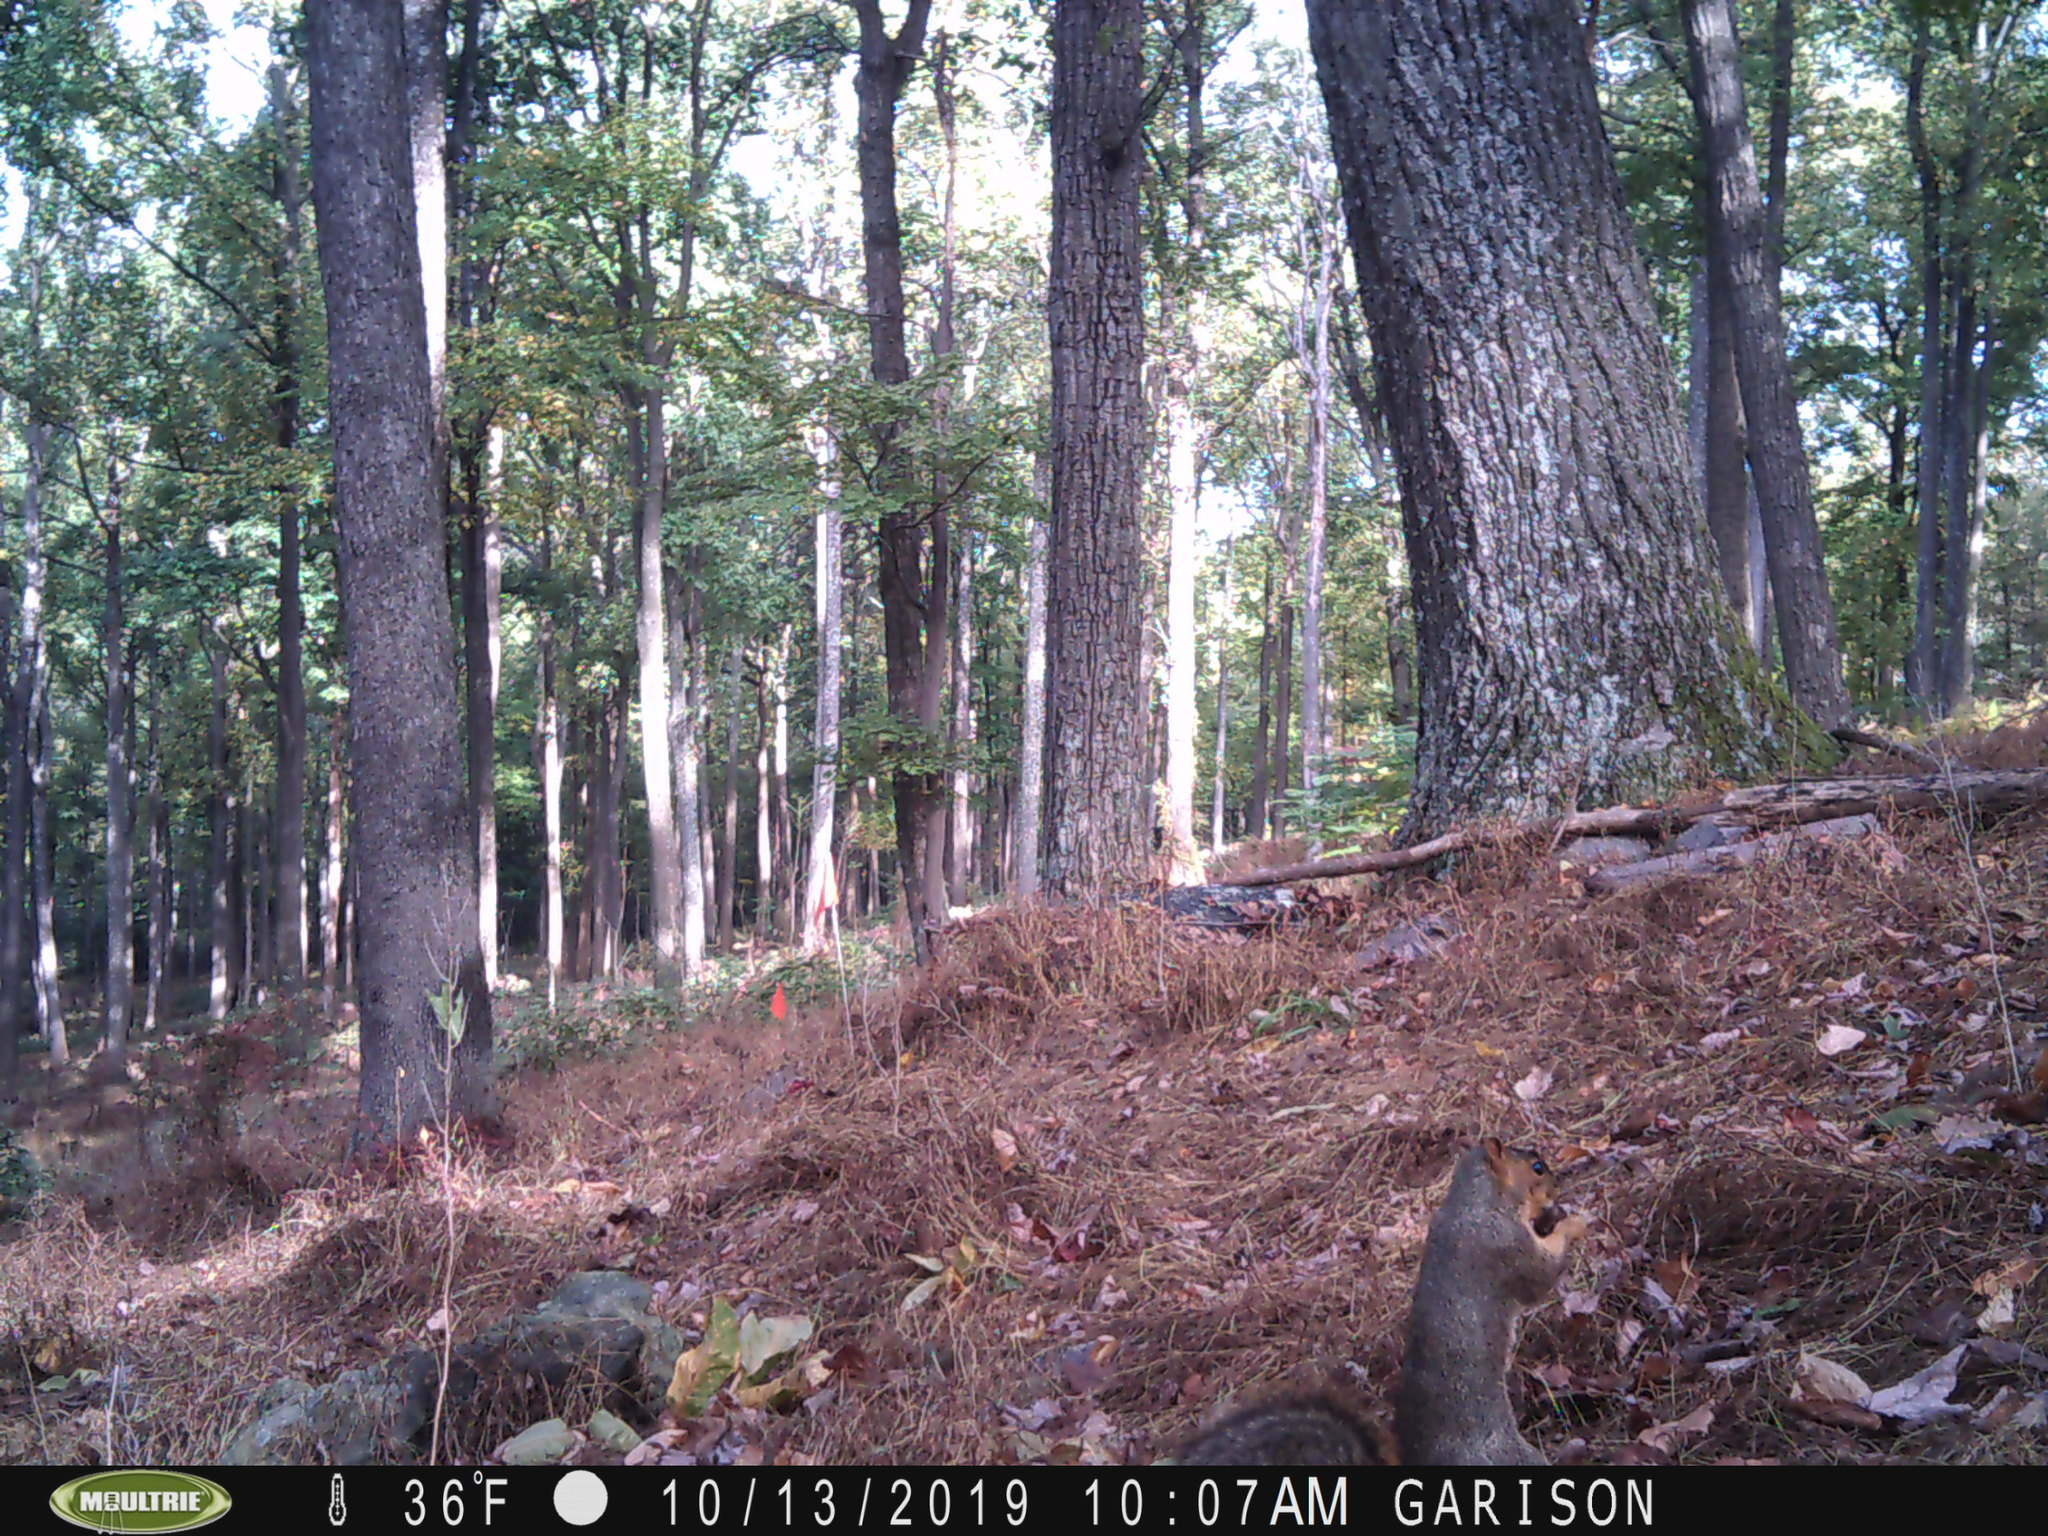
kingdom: Animalia
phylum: Chordata
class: Mammalia
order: Rodentia
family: Sciuridae
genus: Sciurus
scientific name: Sciurus niger
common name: Fox squirrel
